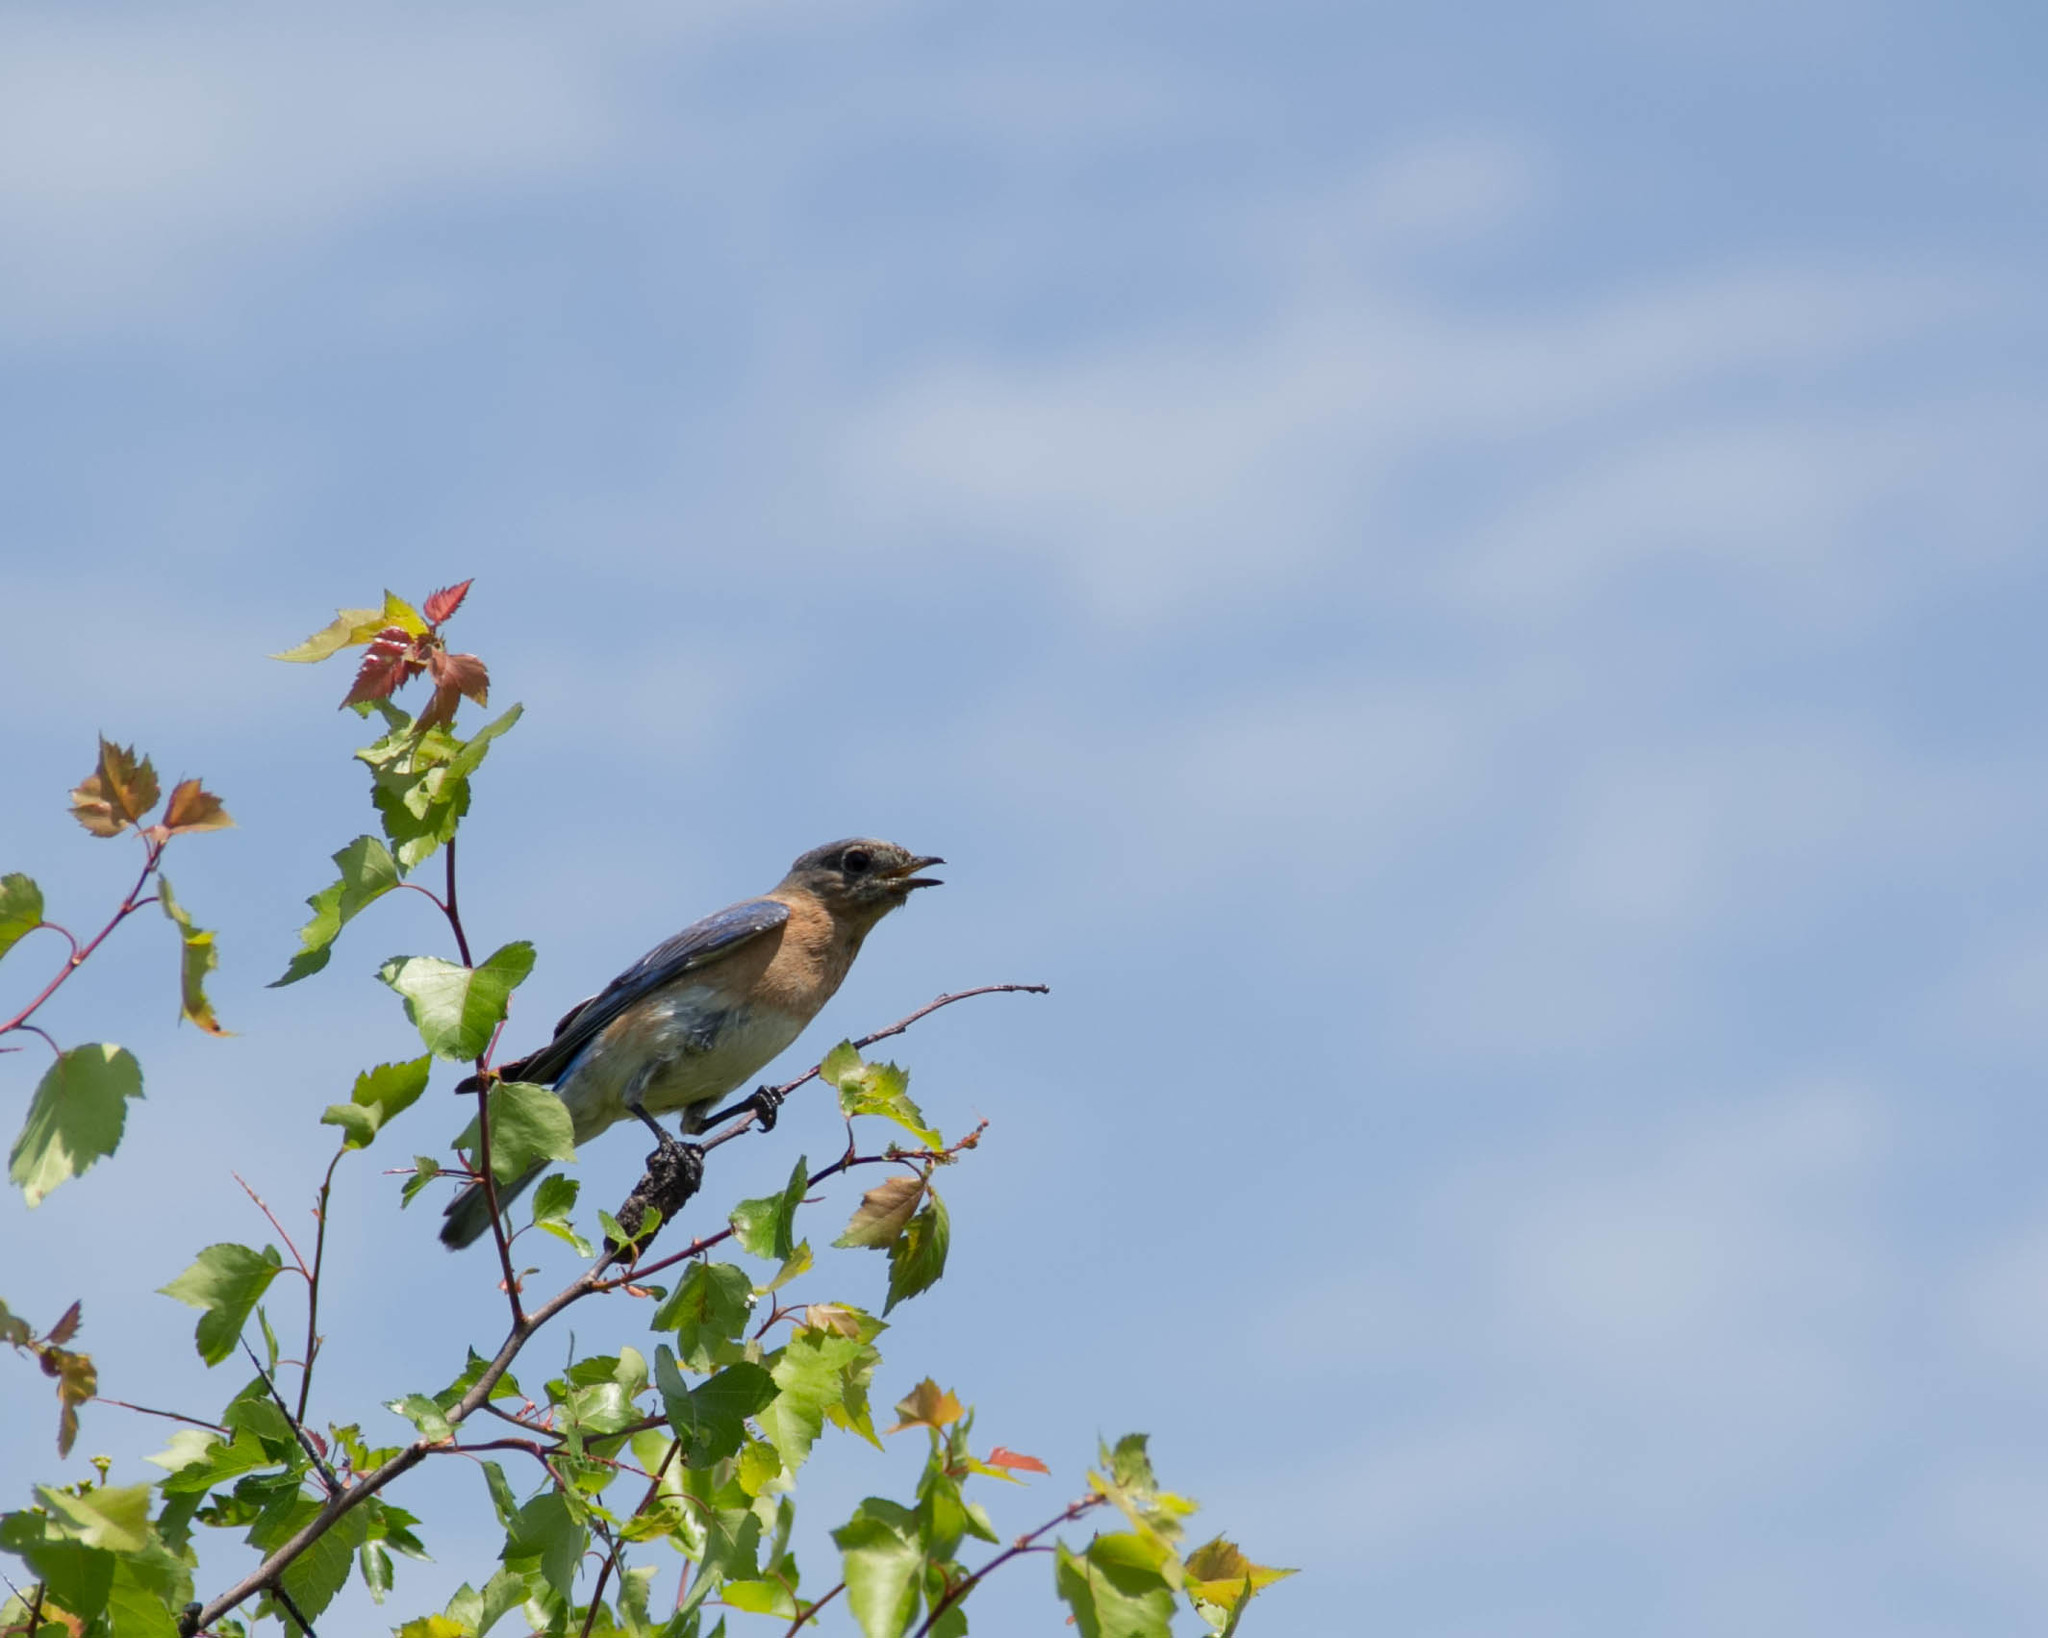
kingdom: Animalia
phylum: Chordata
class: Aves
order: Passeriformes
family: Turdidae
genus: Sialia
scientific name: Sialia sialis
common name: Eastern bluebird
